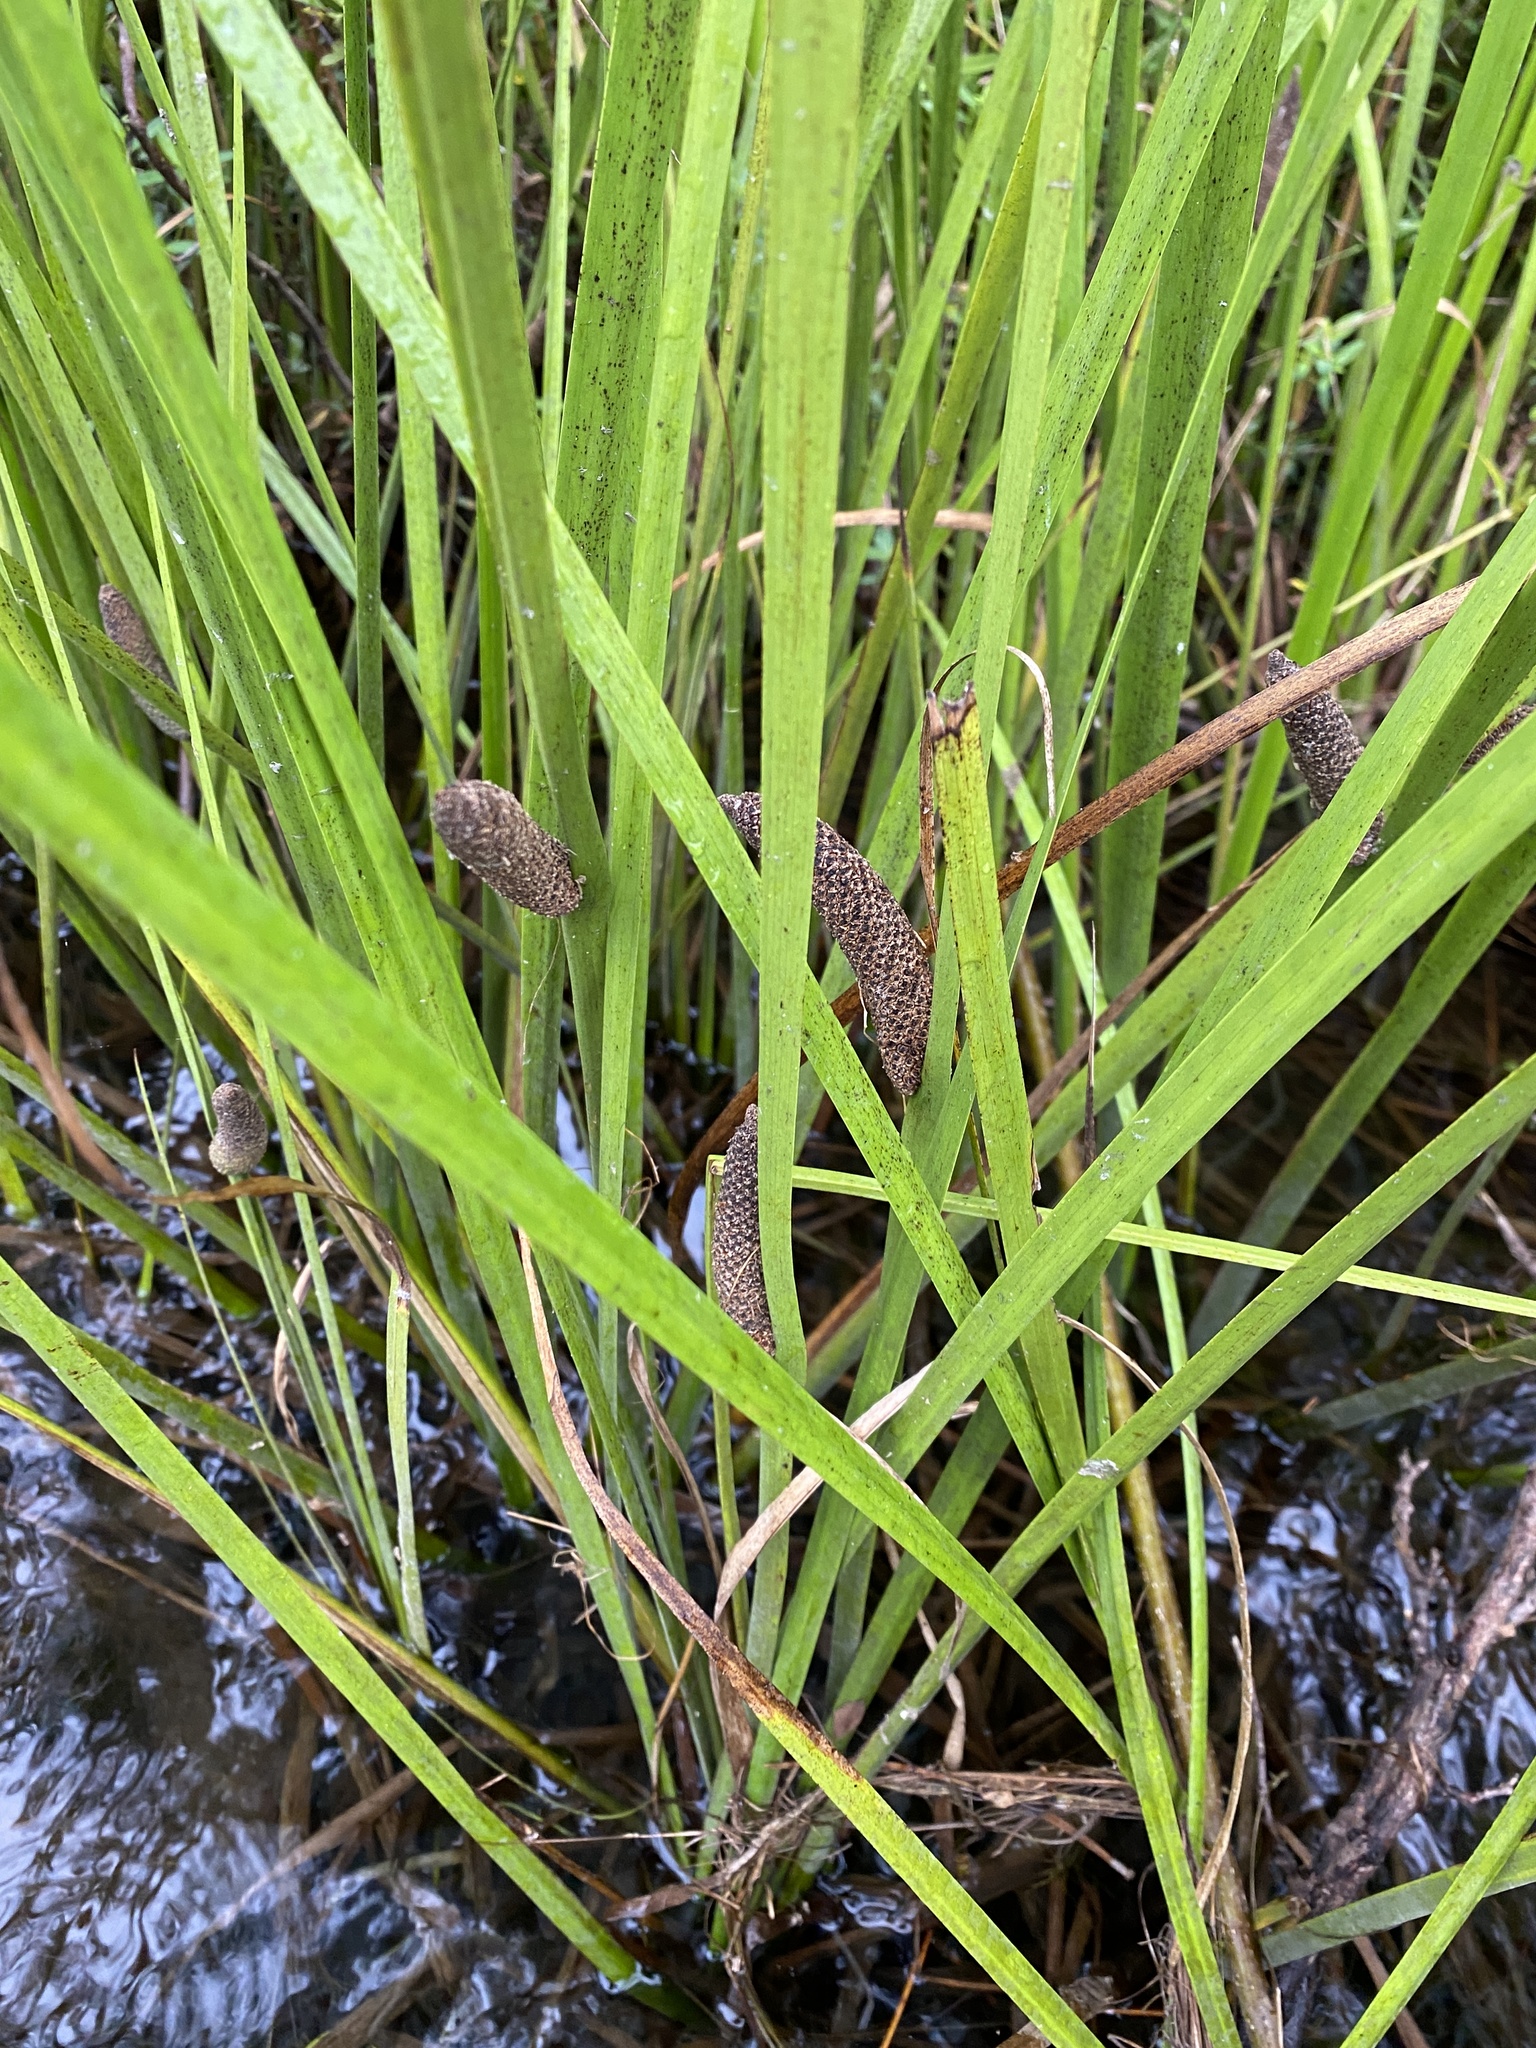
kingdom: Plantae
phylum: Tracheophyta
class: Liliopsida
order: Acorales
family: Acoraceae
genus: Acorus
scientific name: Acorus calamus
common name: Sweet-flag
